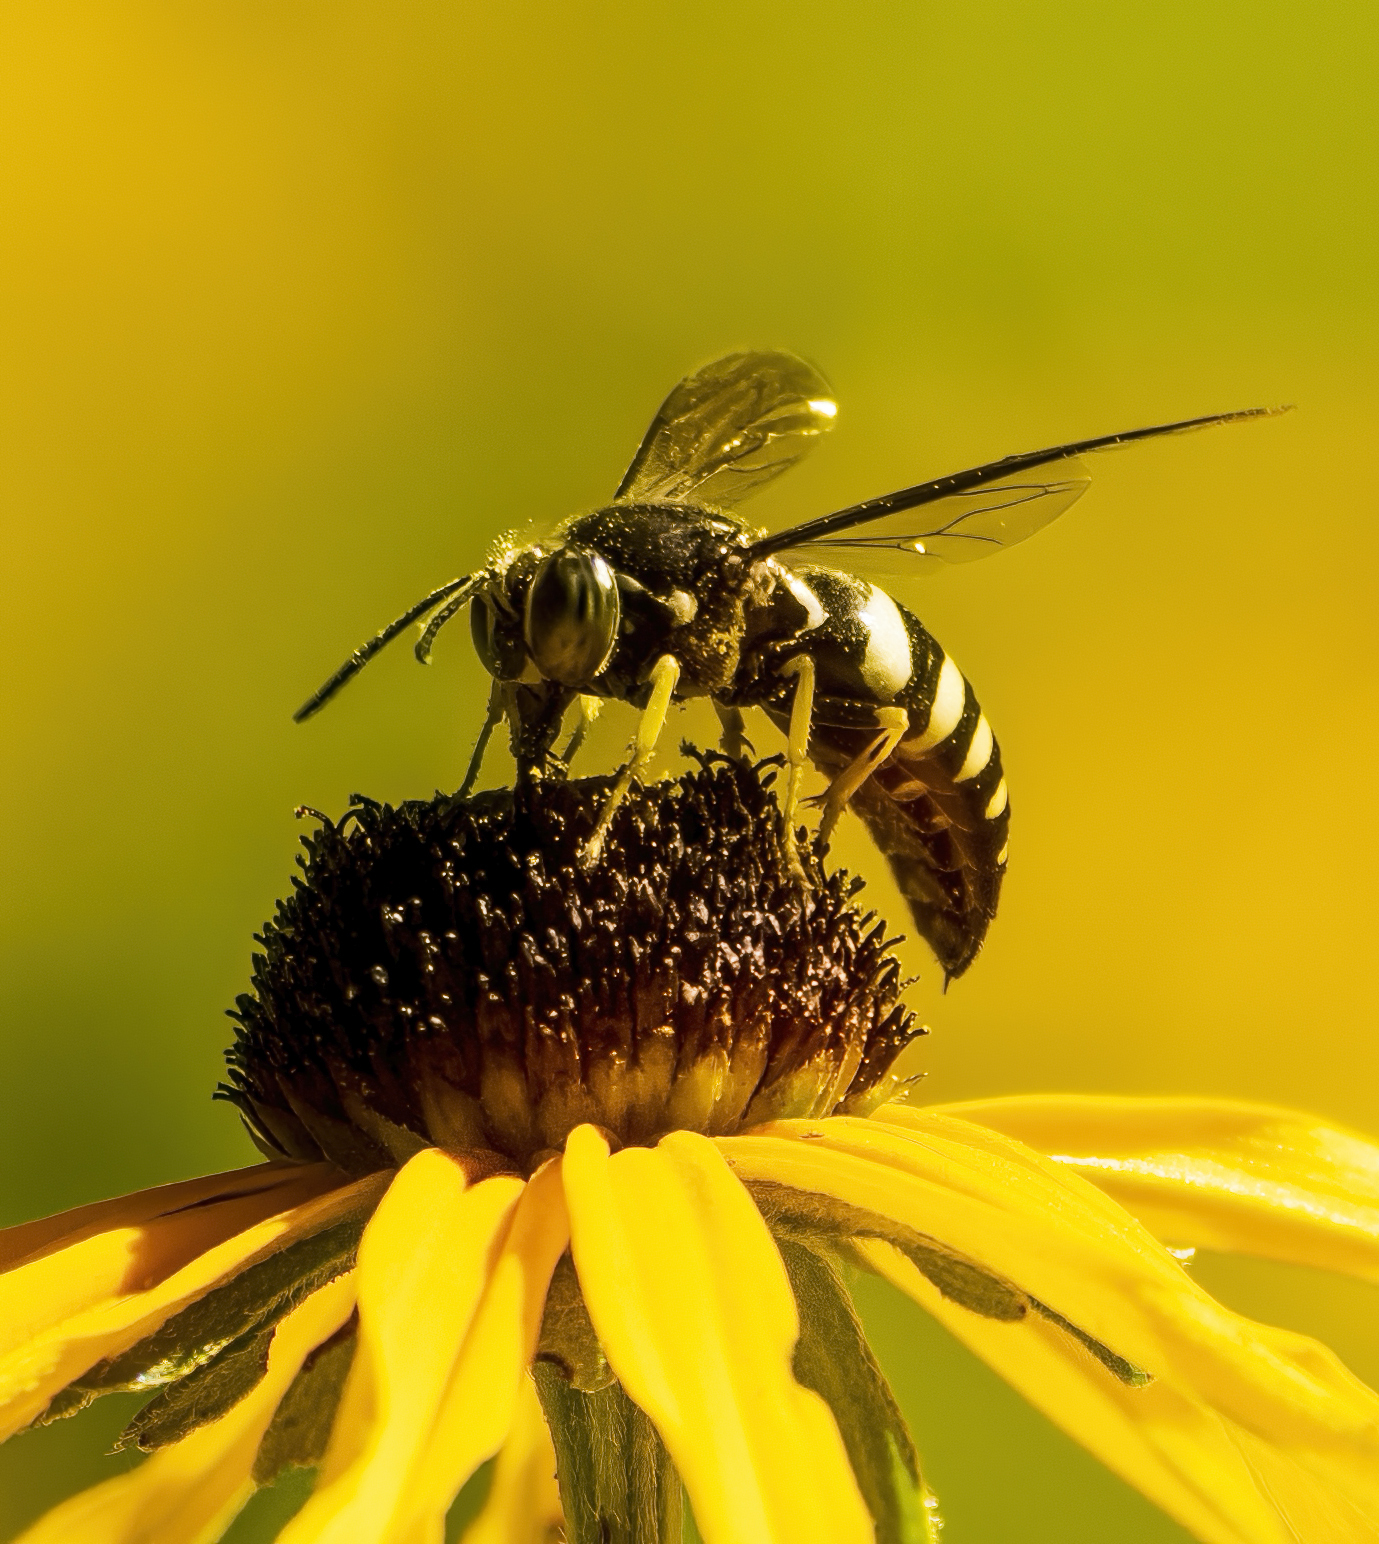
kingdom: Animalia
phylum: Arthropoda
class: Insecta
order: Hymenoptera
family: Crabronidae
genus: Bicyrtes
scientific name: Bicyrtes quadrifasciatus
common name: Four-banded stink bug hunter wasp
